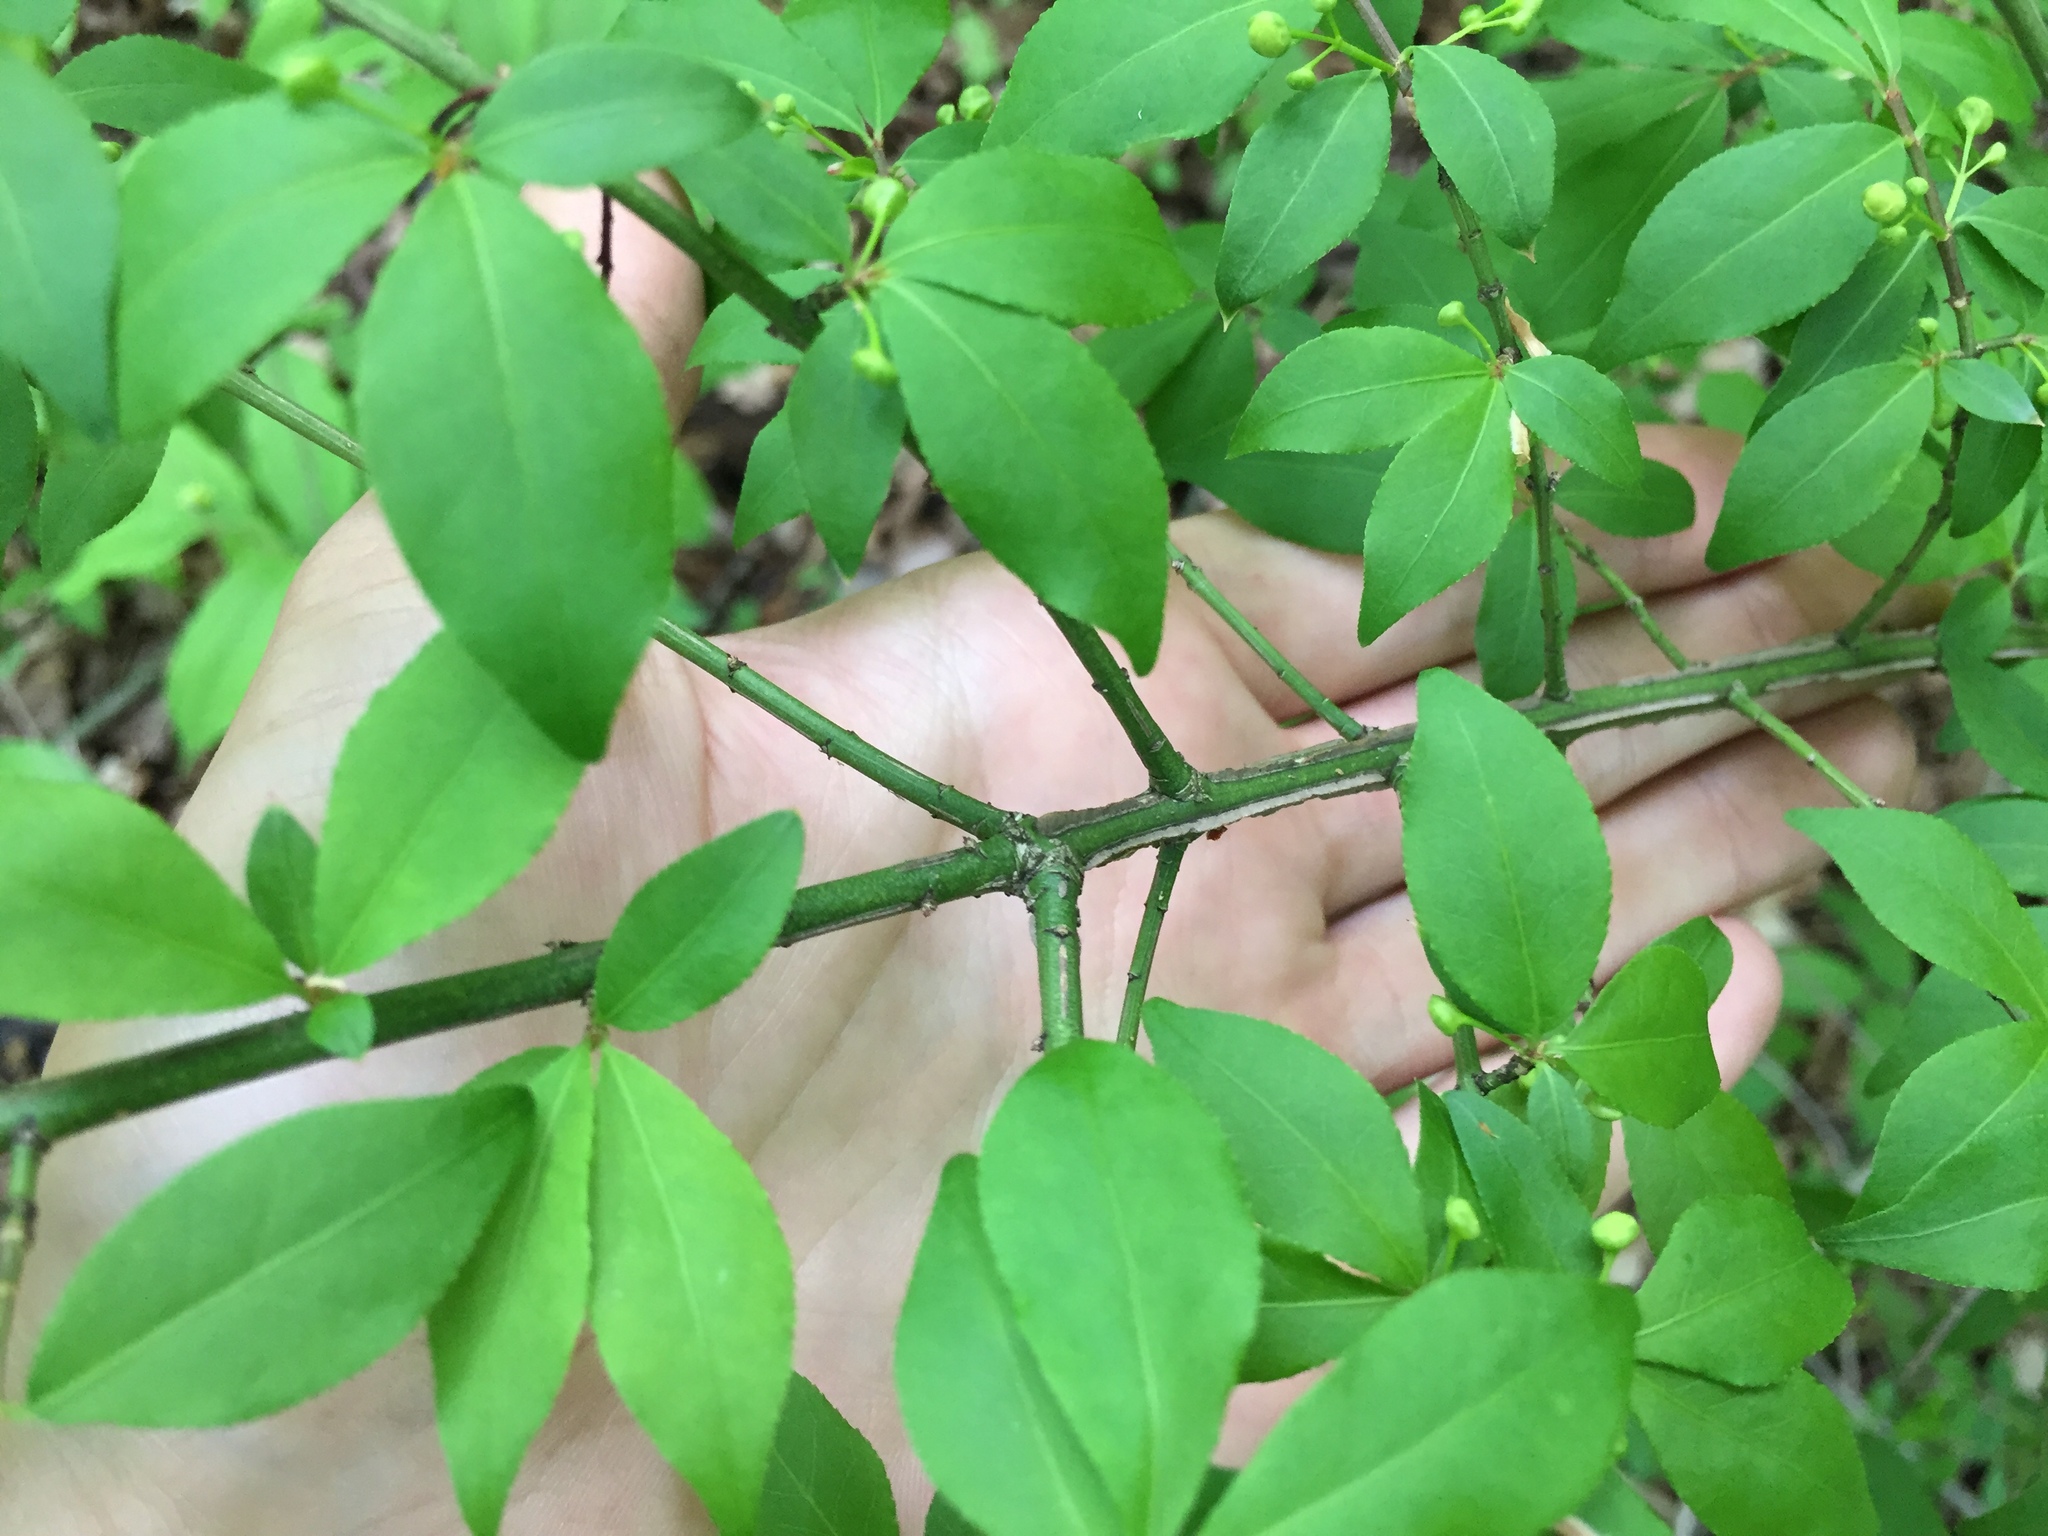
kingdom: Plantae
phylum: Tracheophyta
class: Magnoliopsida
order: Celastrales
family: Celastraceae
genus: Euonymus
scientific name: Euonymus alatus
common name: Winged euonymus
